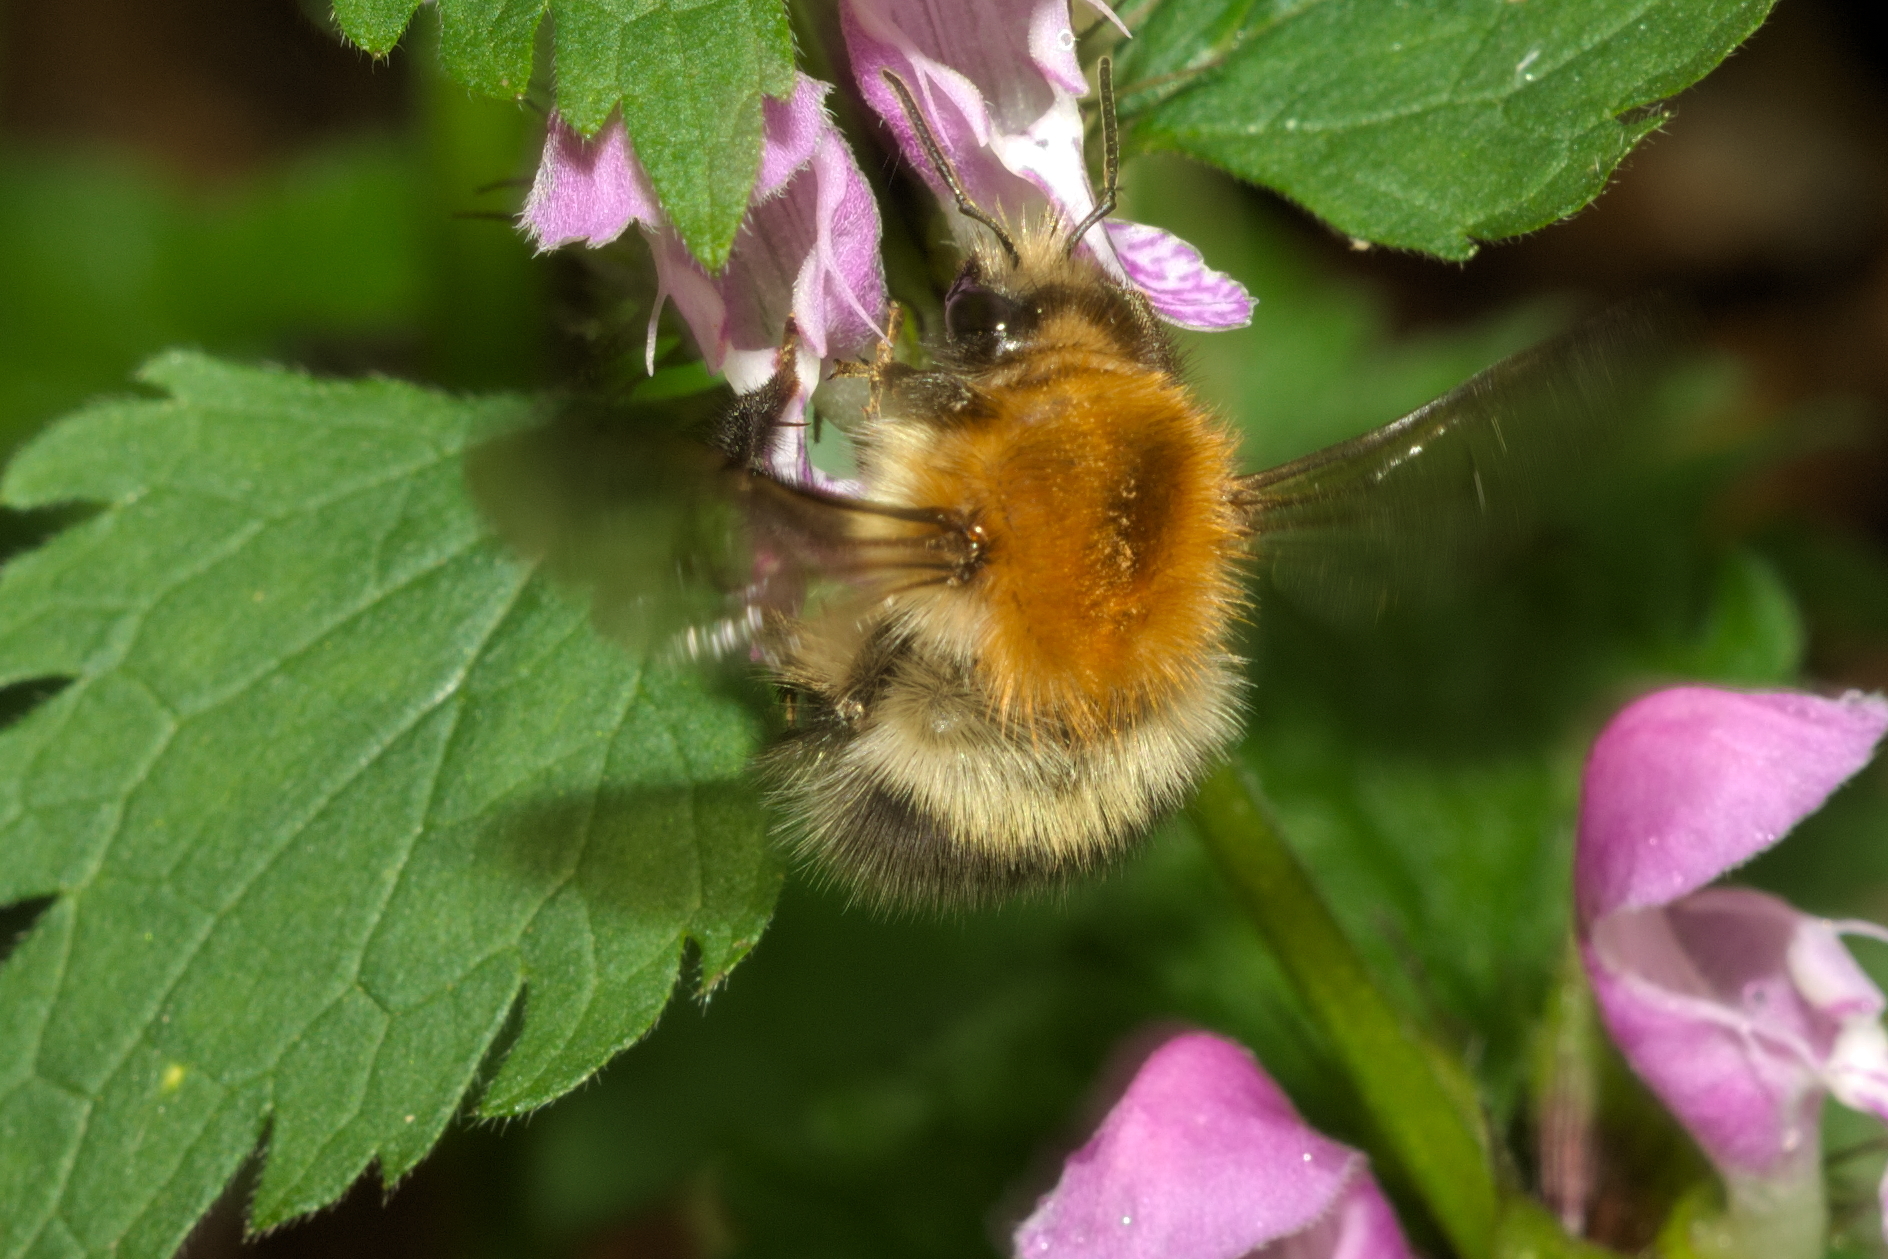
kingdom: Animalia
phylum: Arthropoda
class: Insecta
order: Hymenoptera
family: Apidae
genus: Bombus
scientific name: Bombus pascuorum
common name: Common carder bee
